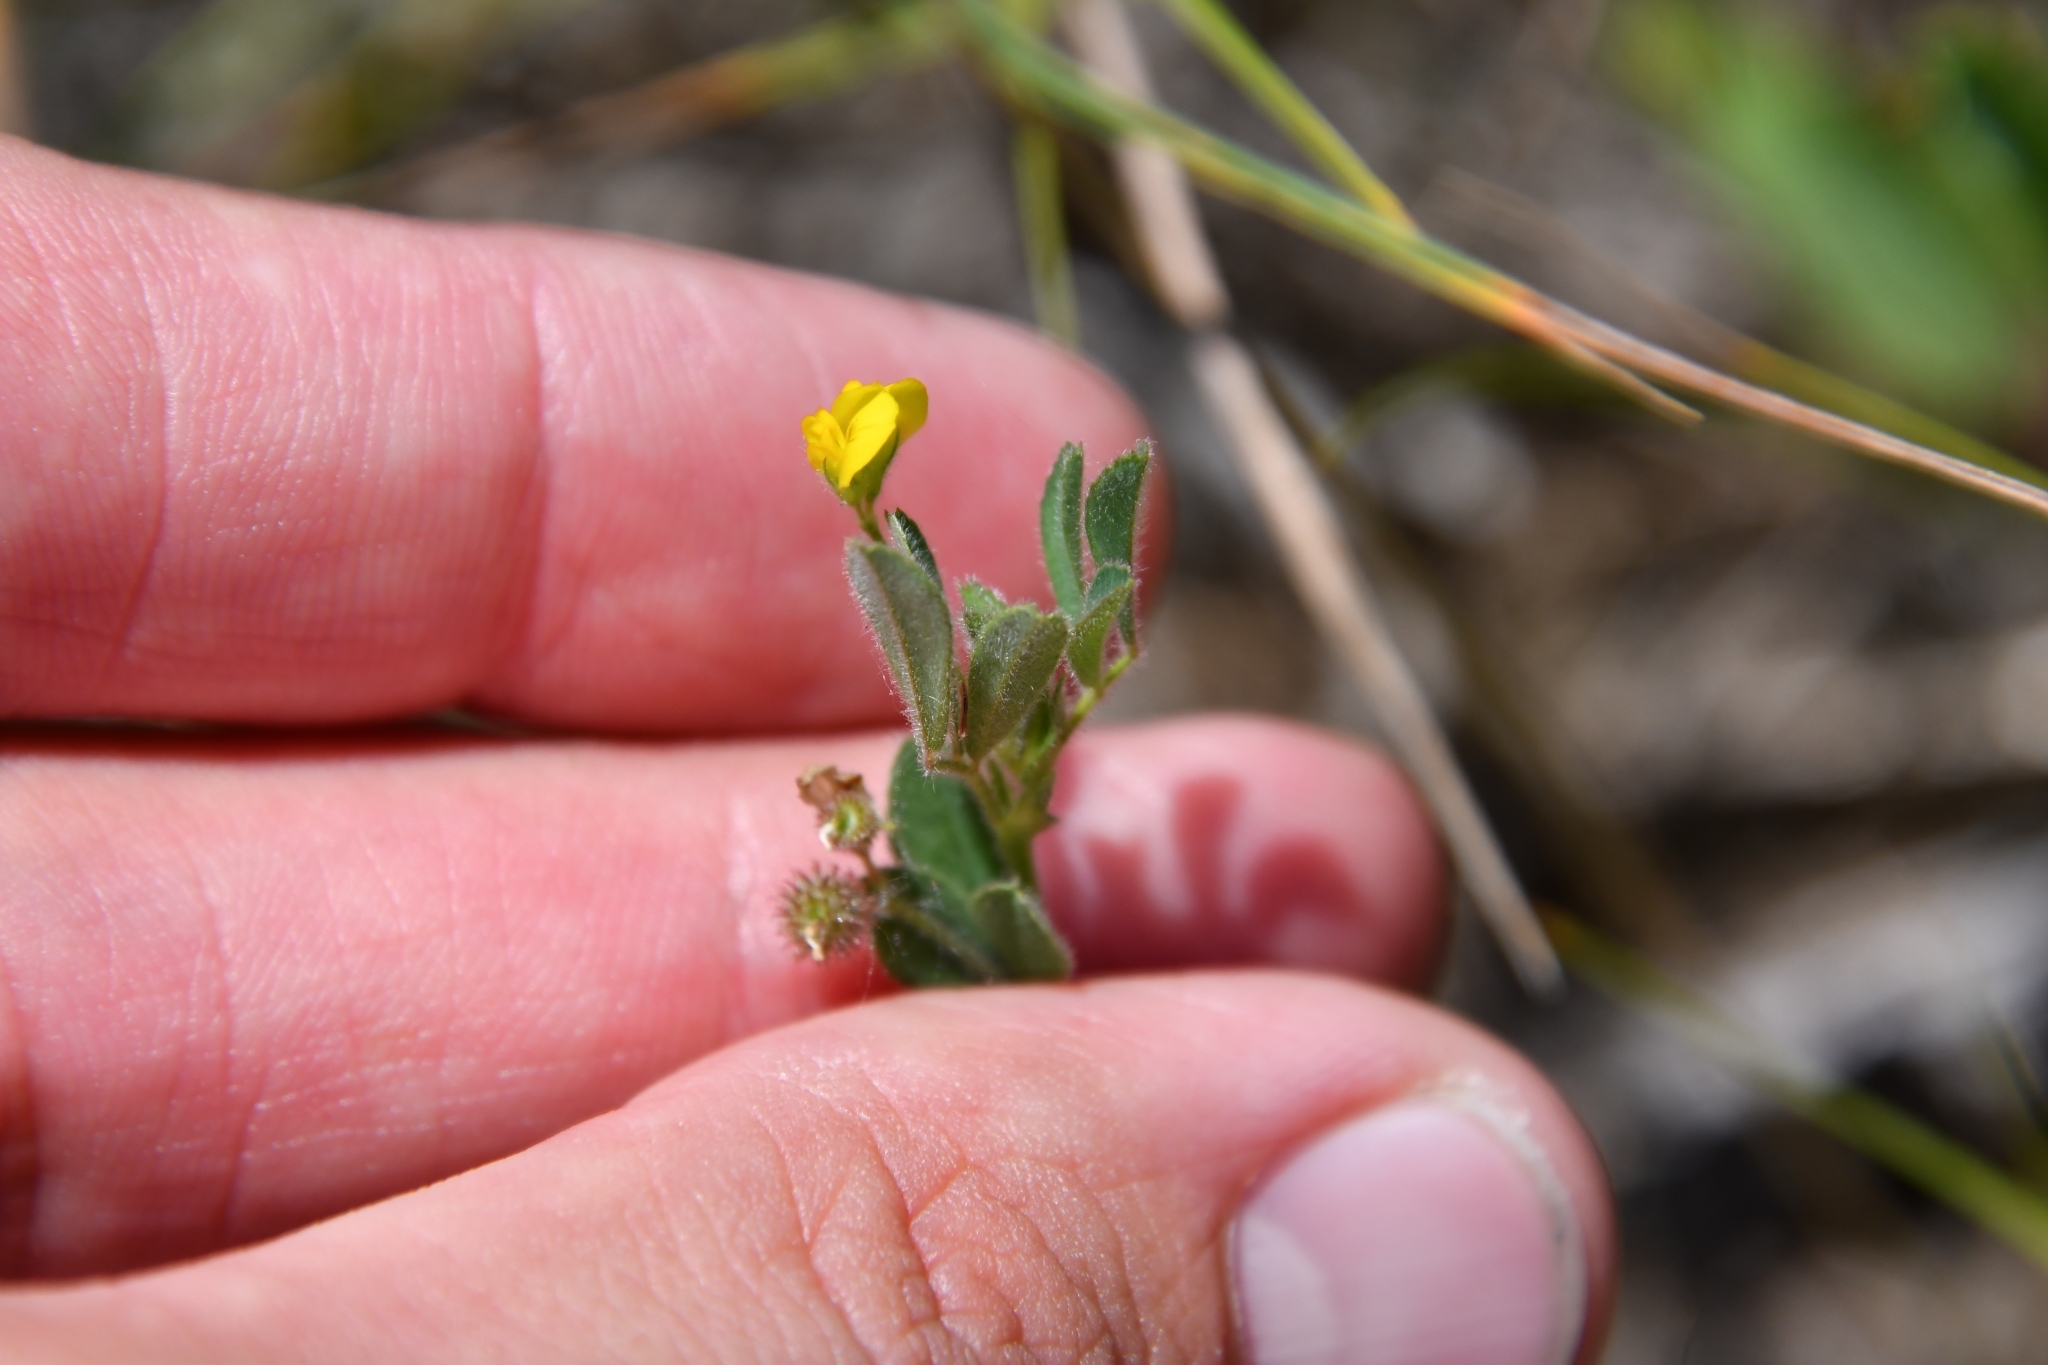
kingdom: Plantae
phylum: Tracheophyta
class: Magnoliopsida
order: Fabales
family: Fabaceae
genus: Medicago
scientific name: Medicago minima
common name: Little bur-clover
